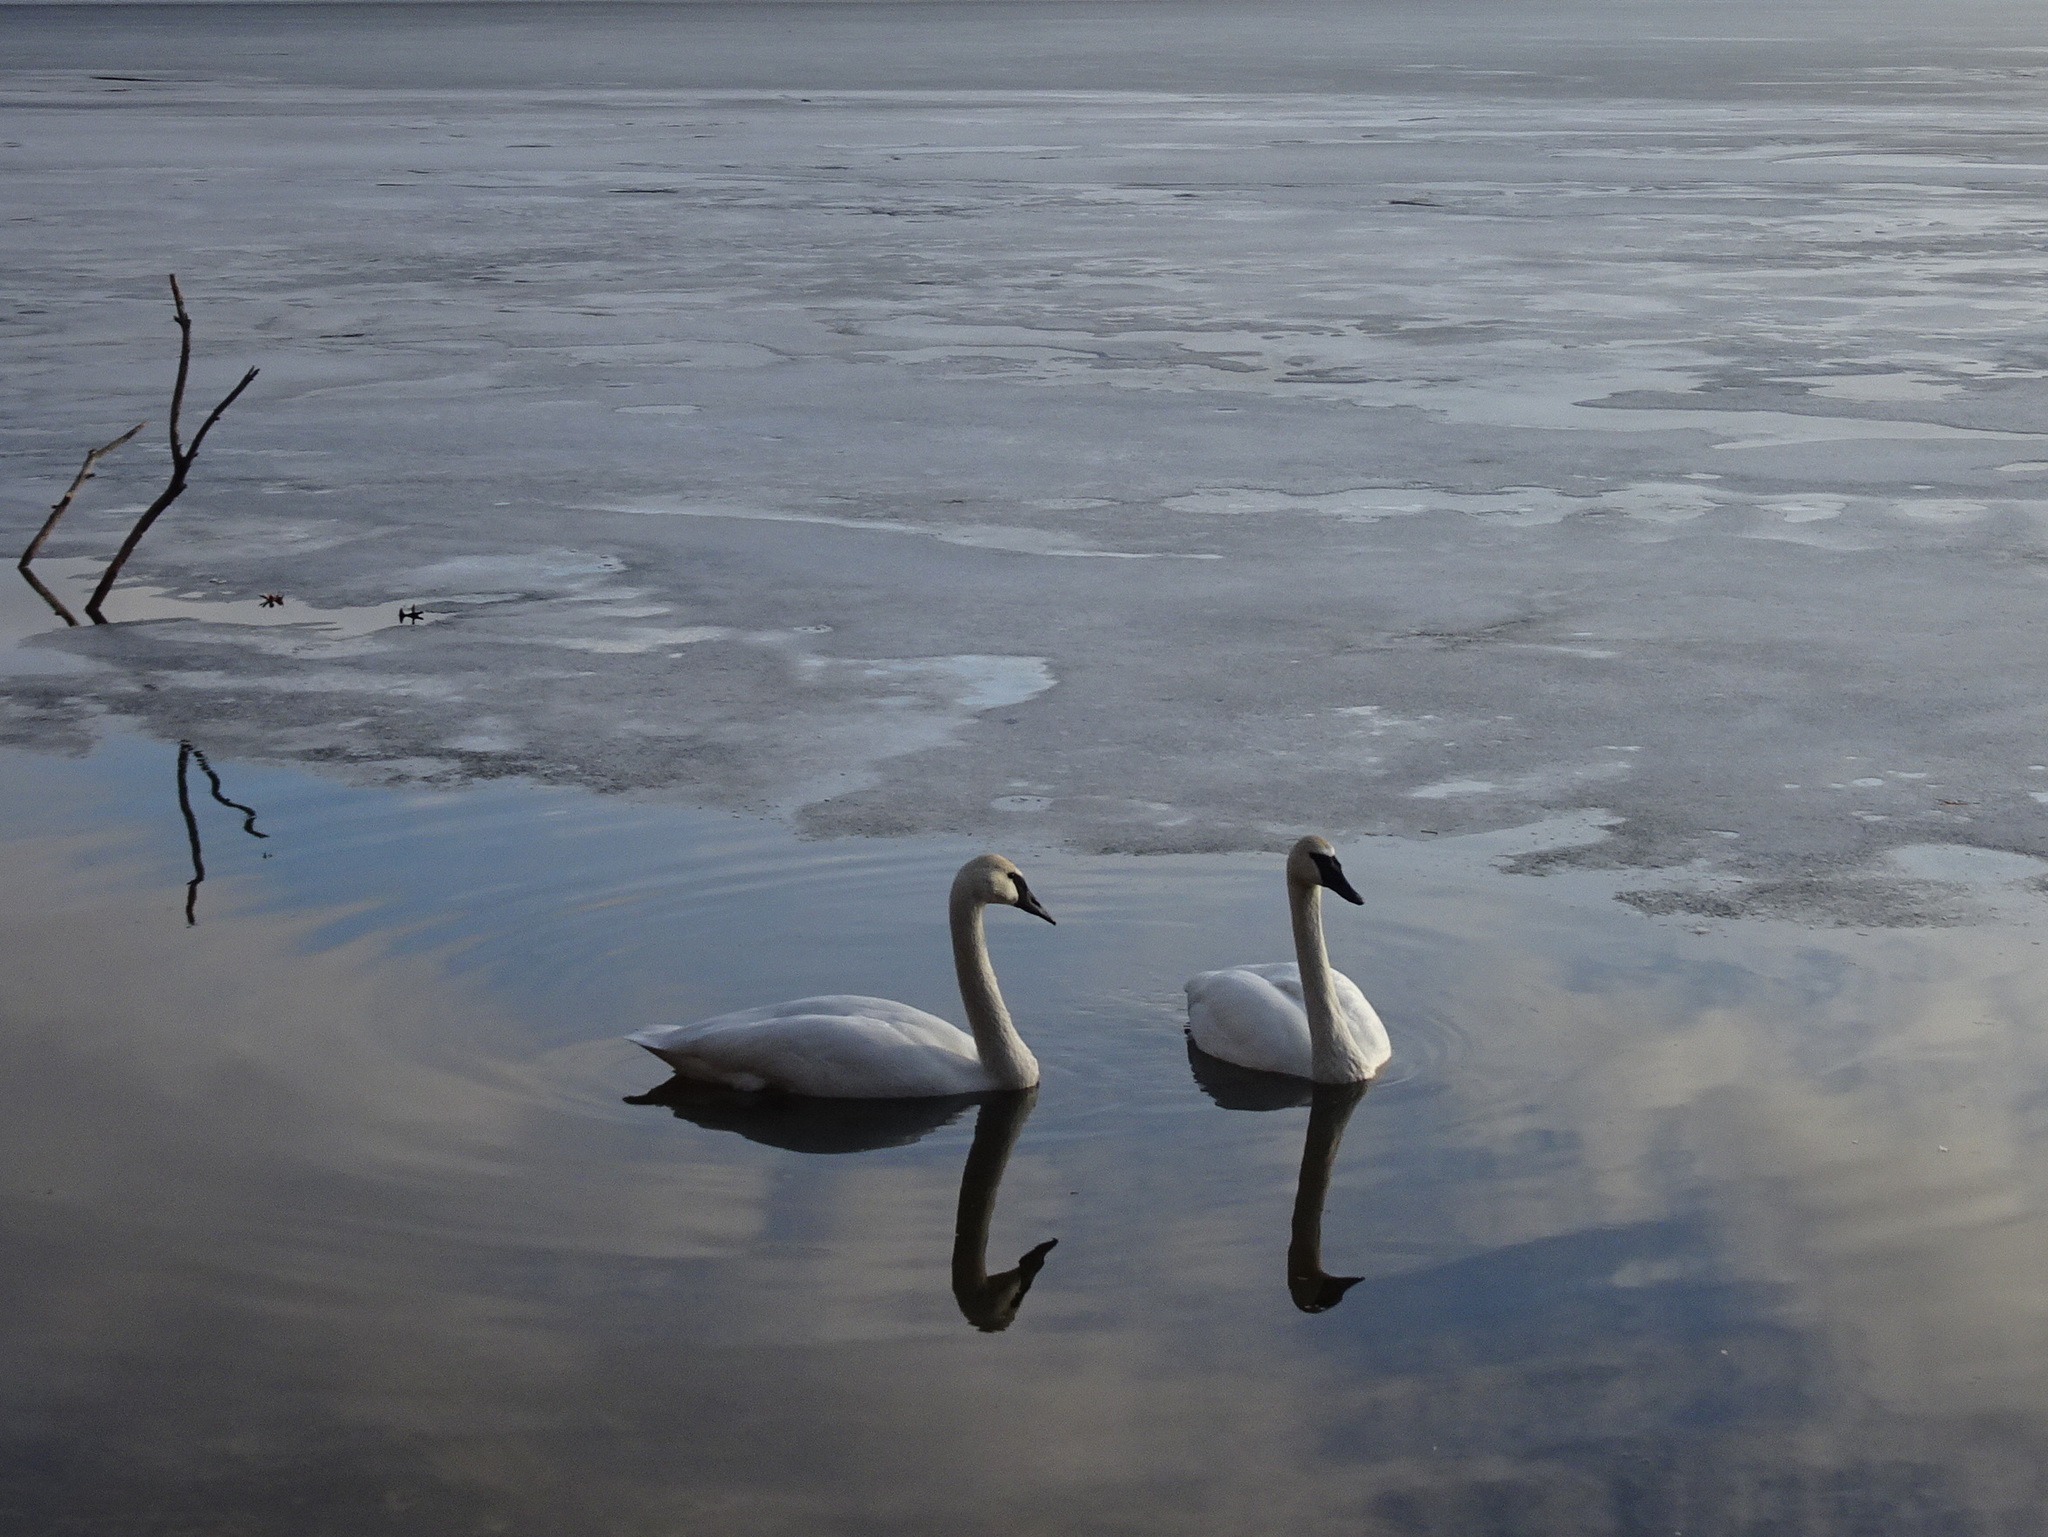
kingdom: Animalia
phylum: Chordata
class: Aves
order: Anseriformes
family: Anatidae
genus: Cygnus
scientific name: Cygnus buccinator
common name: Trumpeter swan
